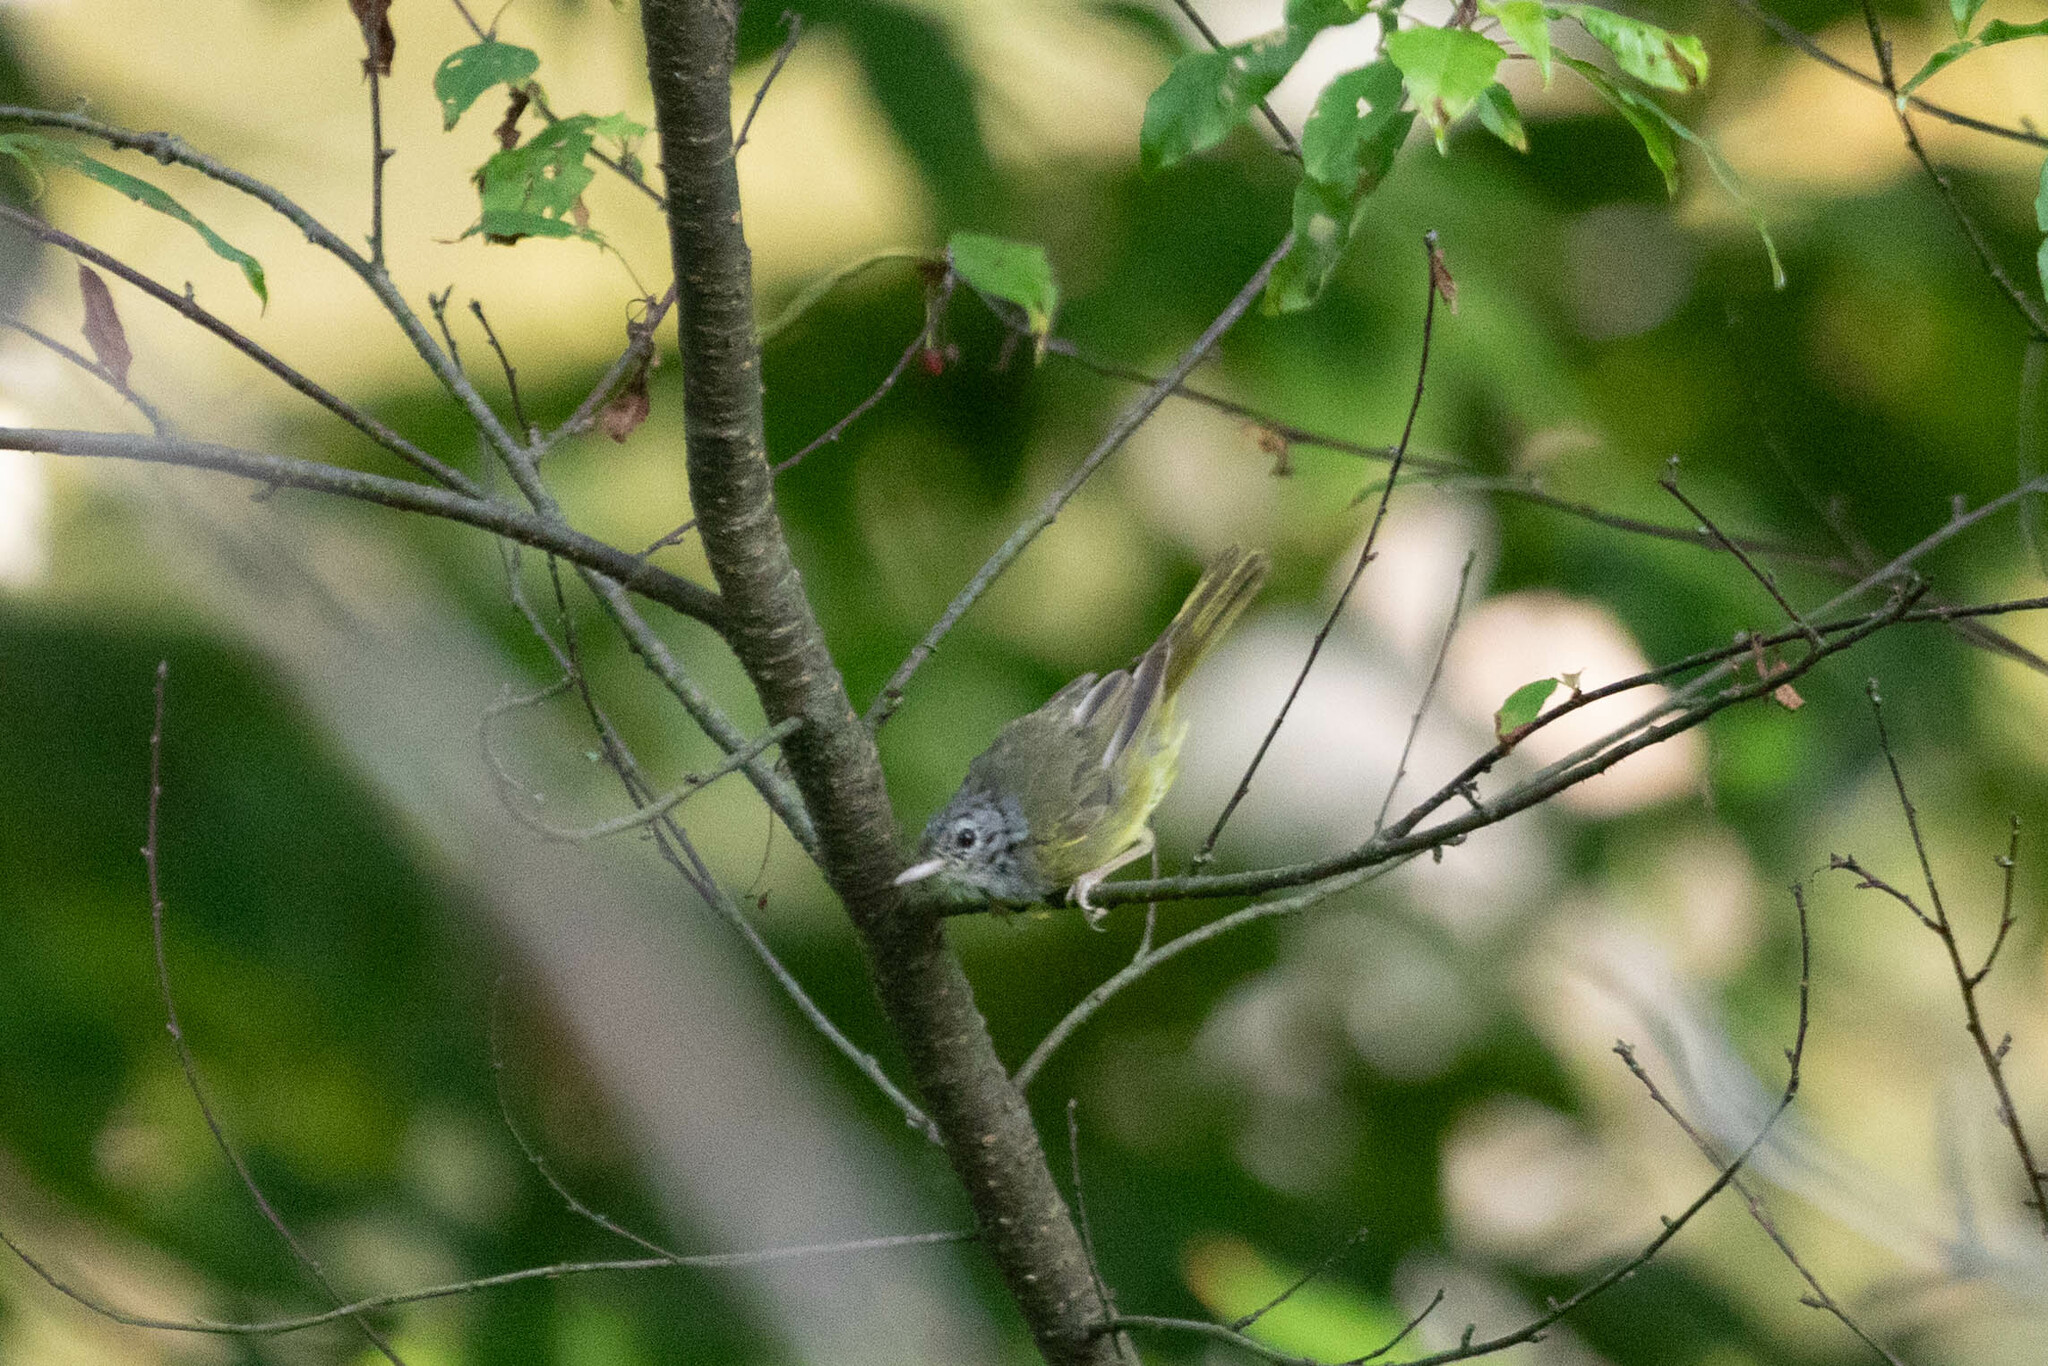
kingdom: Animalia
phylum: Chordata
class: Aves
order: Passeriformes
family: Parulidae
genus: Geothlypis
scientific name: Geothlypis philadelphia
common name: Mourning warbler
